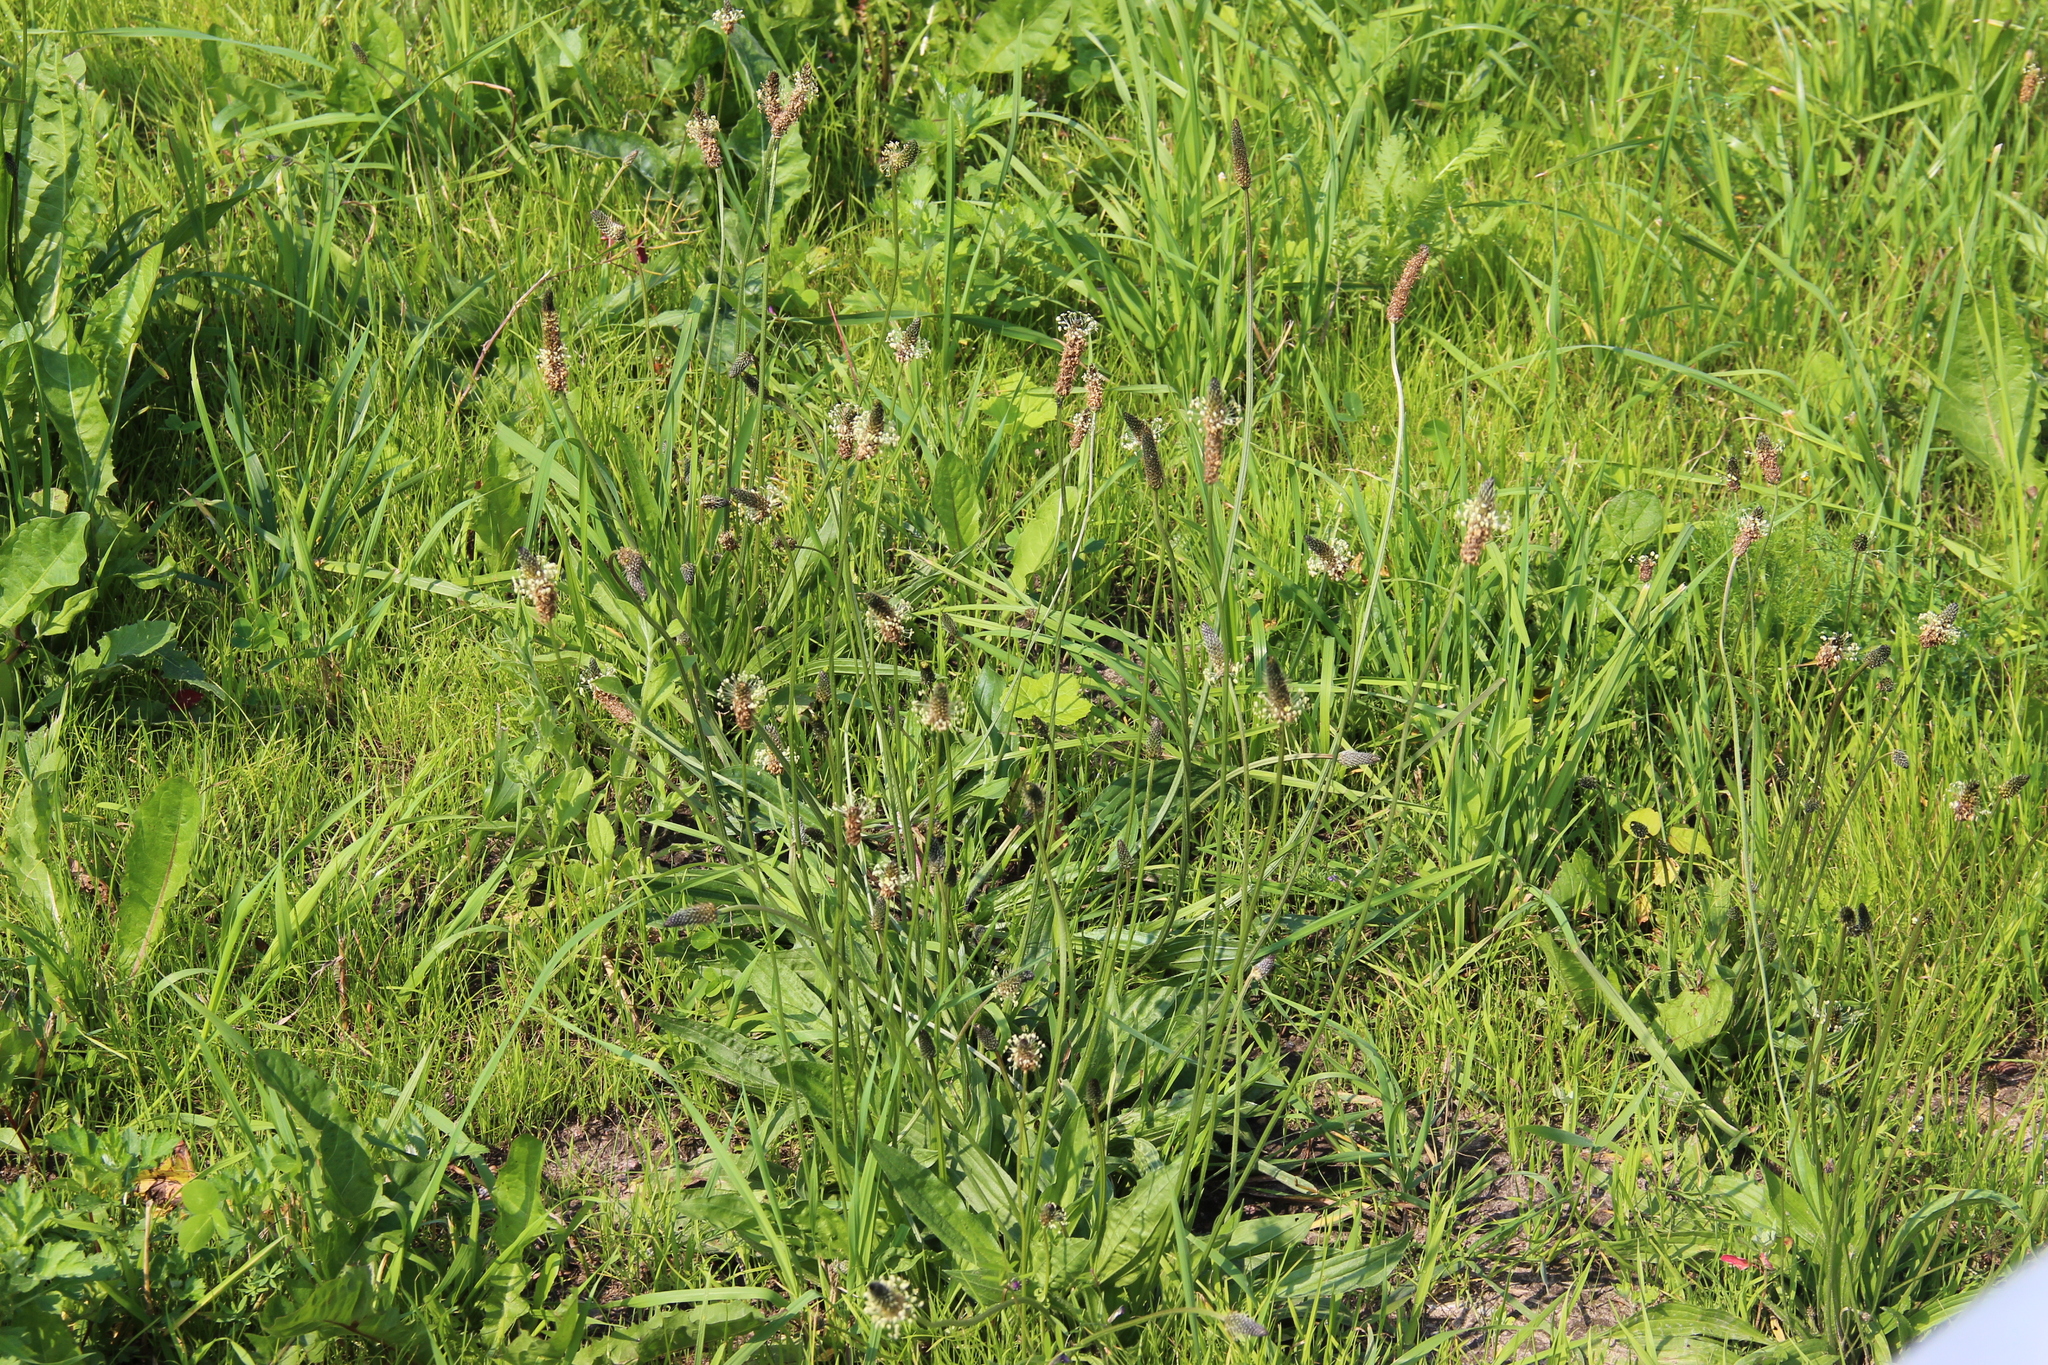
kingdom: Plantae
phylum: Tracheophyta
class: Magnoliopsida
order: Lamiales
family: Plantaginaceae
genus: Plantago
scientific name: Plantago lanceolata
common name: Ribwort plantain
